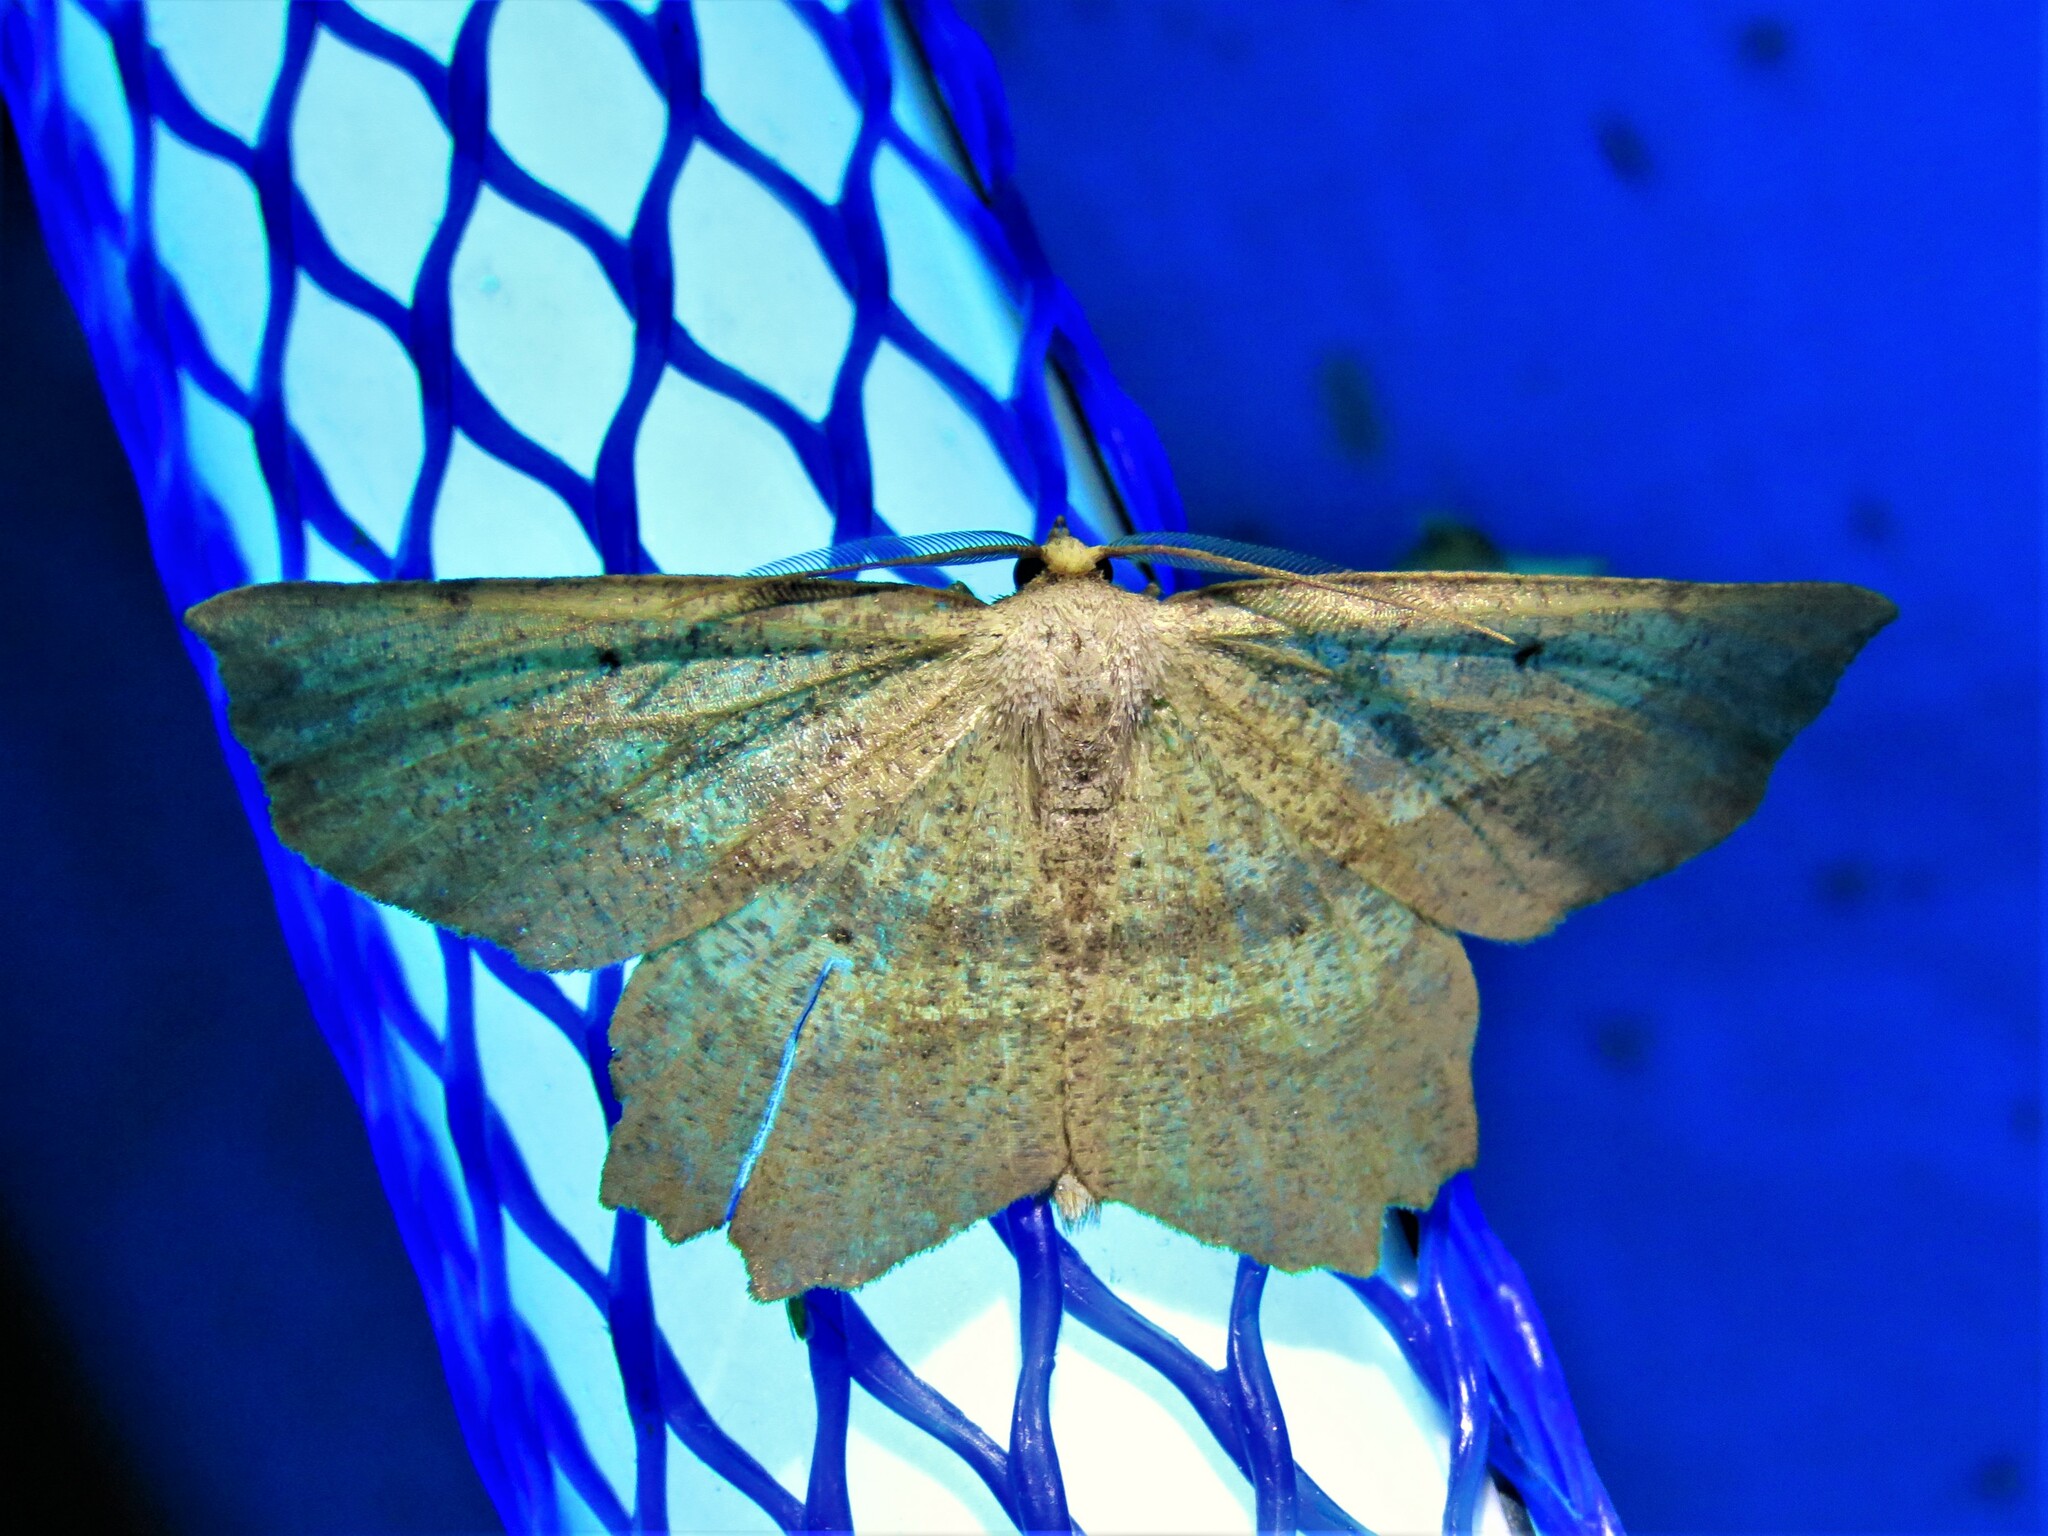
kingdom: Animalia
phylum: Arthropoda
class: Insecta
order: Lepidoptera
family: Geometridae
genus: Euchlaena
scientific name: Euchlaena obtusaria
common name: Obtuse euchlaena moth
